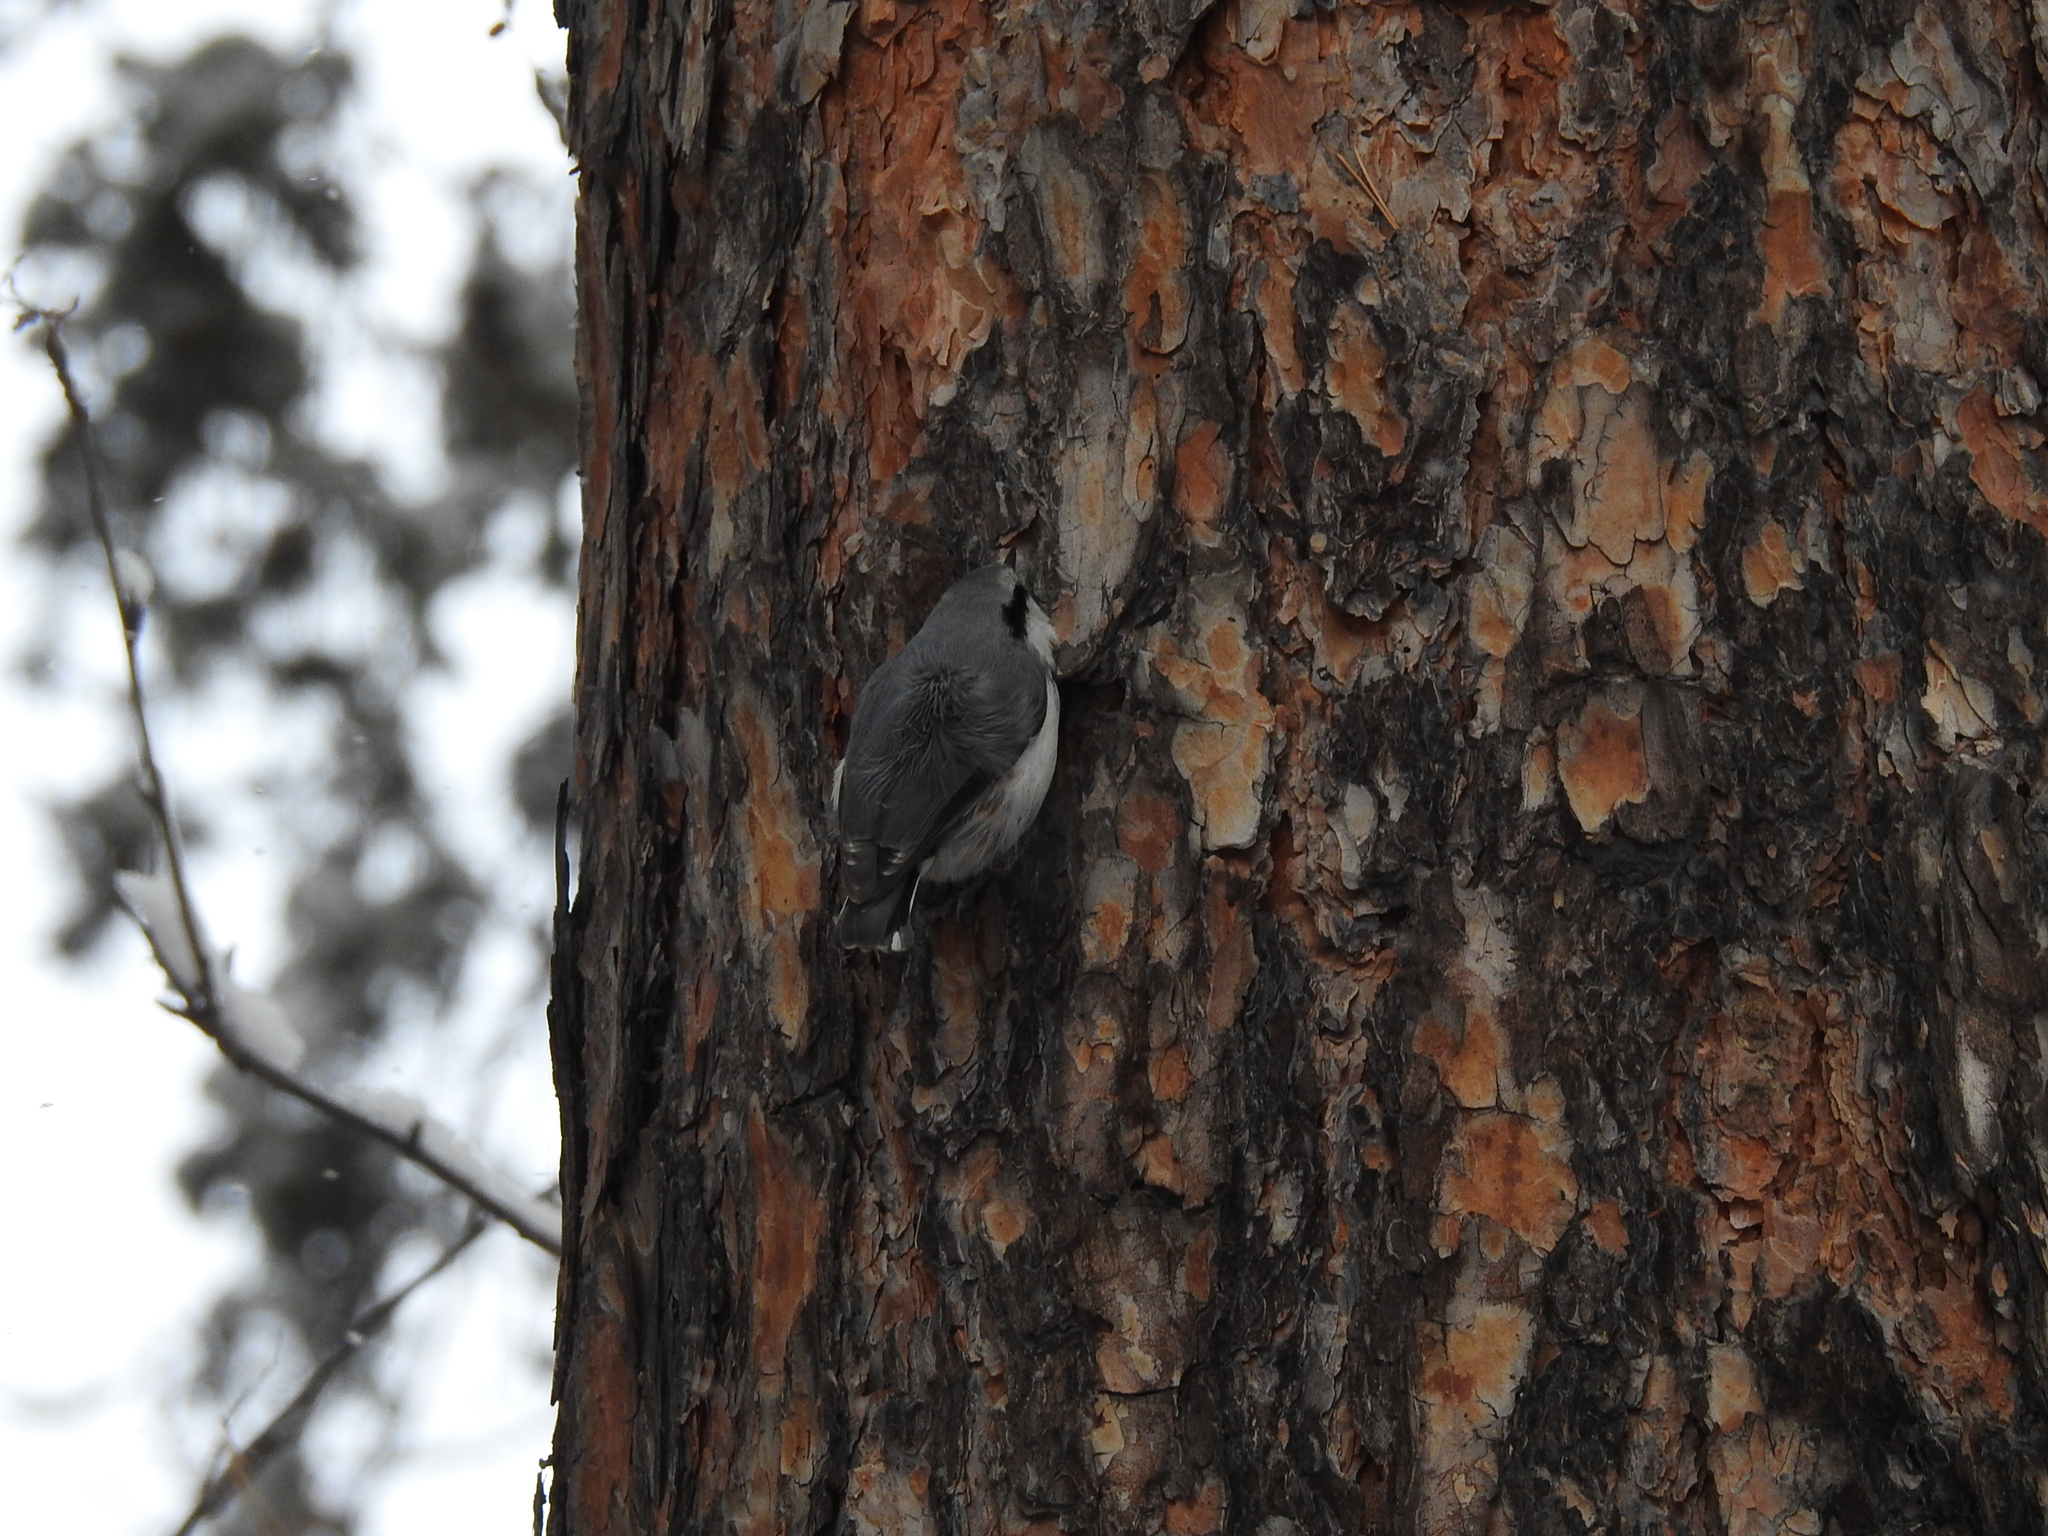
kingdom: Animalia
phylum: Chordata
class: Aves
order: Passeriformes
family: Sittidae
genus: Sitta
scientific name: Sitta europaea
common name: Eurasian nuthatch
